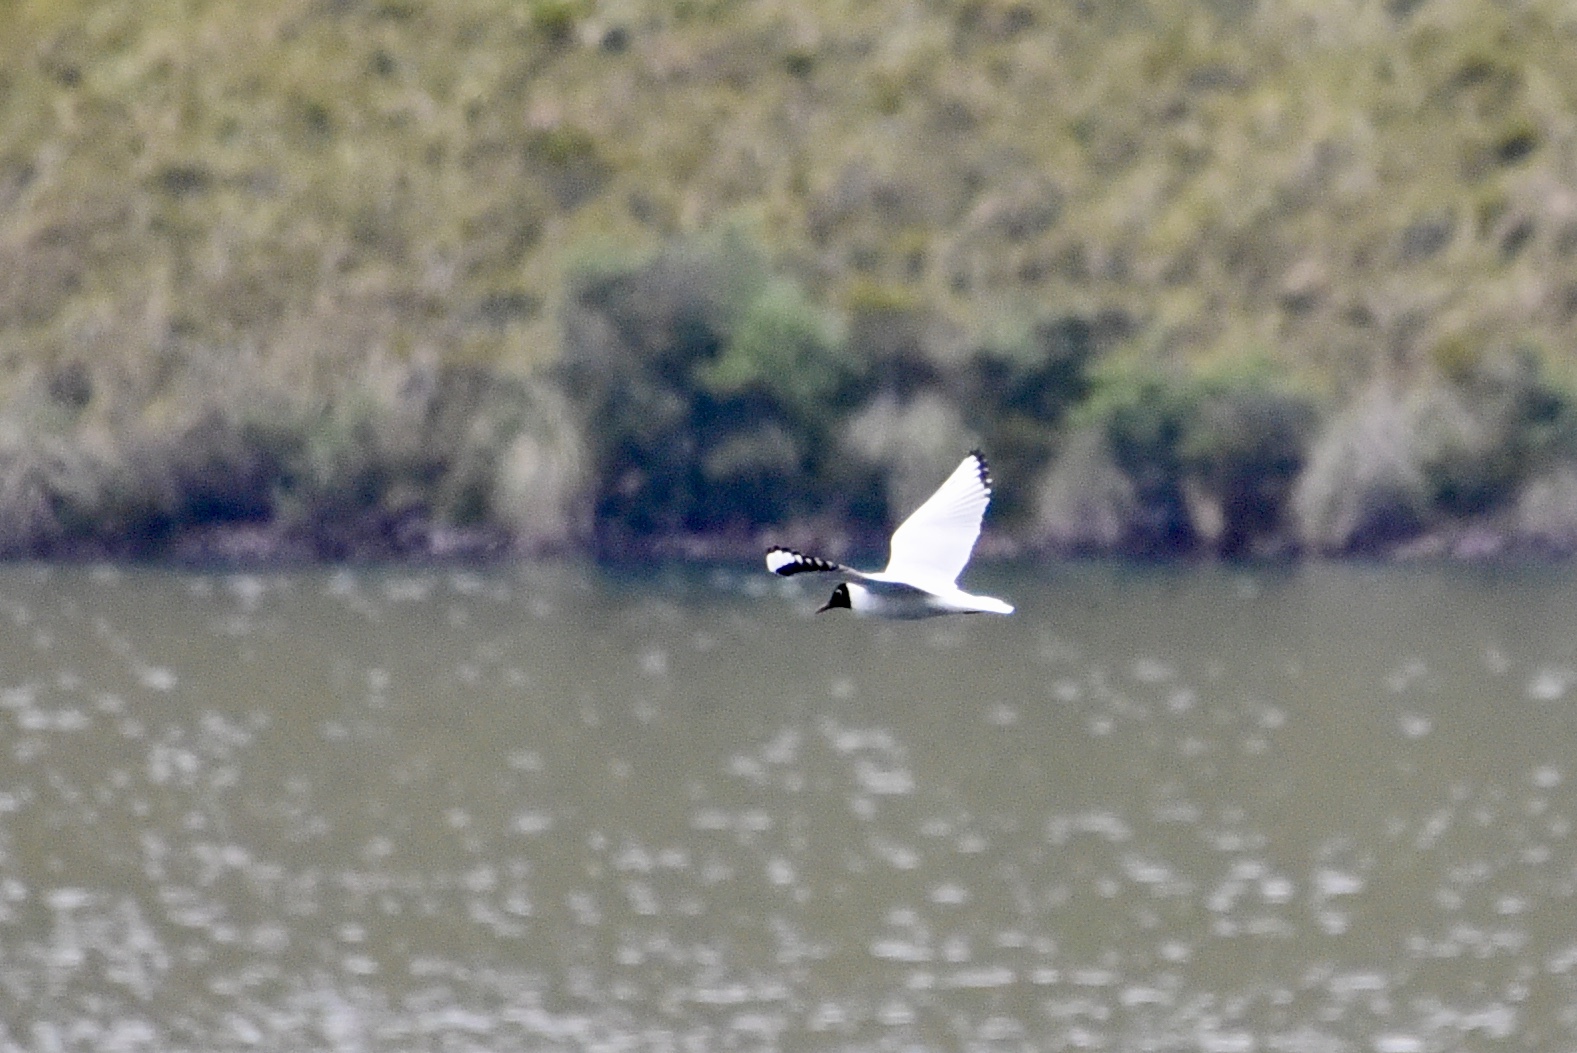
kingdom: Animalia
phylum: Chordata
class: Aves
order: Charadriiformes
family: Laridae
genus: Chroicocephalus
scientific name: Chroicocephalus serranus
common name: Andean gull
